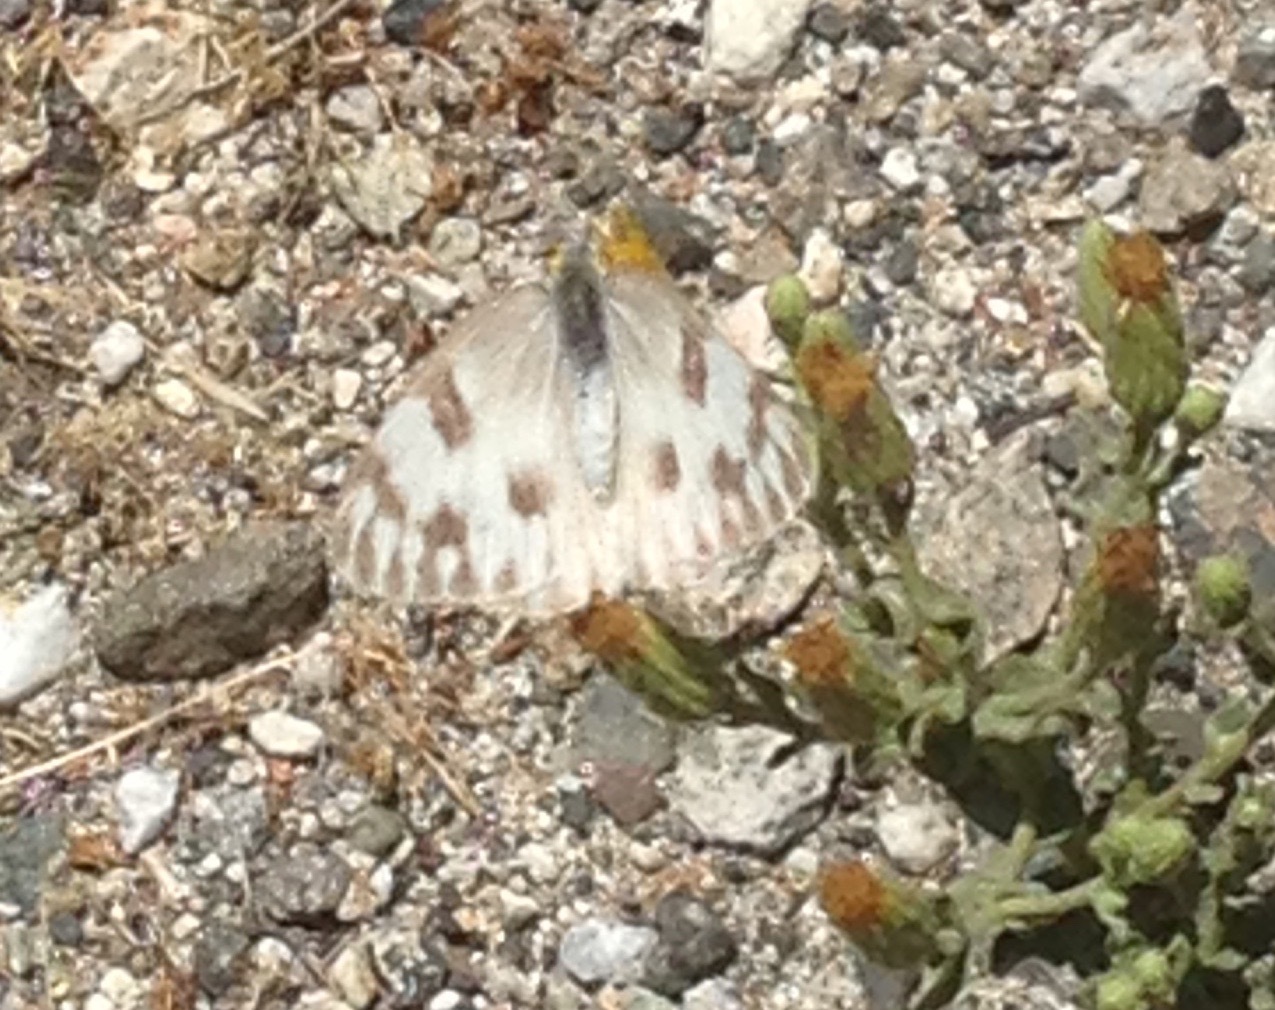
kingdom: Animalia
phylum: Arthropoda
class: Insecta
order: Lepidoptera
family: Pieridae
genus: Pontia
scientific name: Pontia protodice
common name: Checkered white
